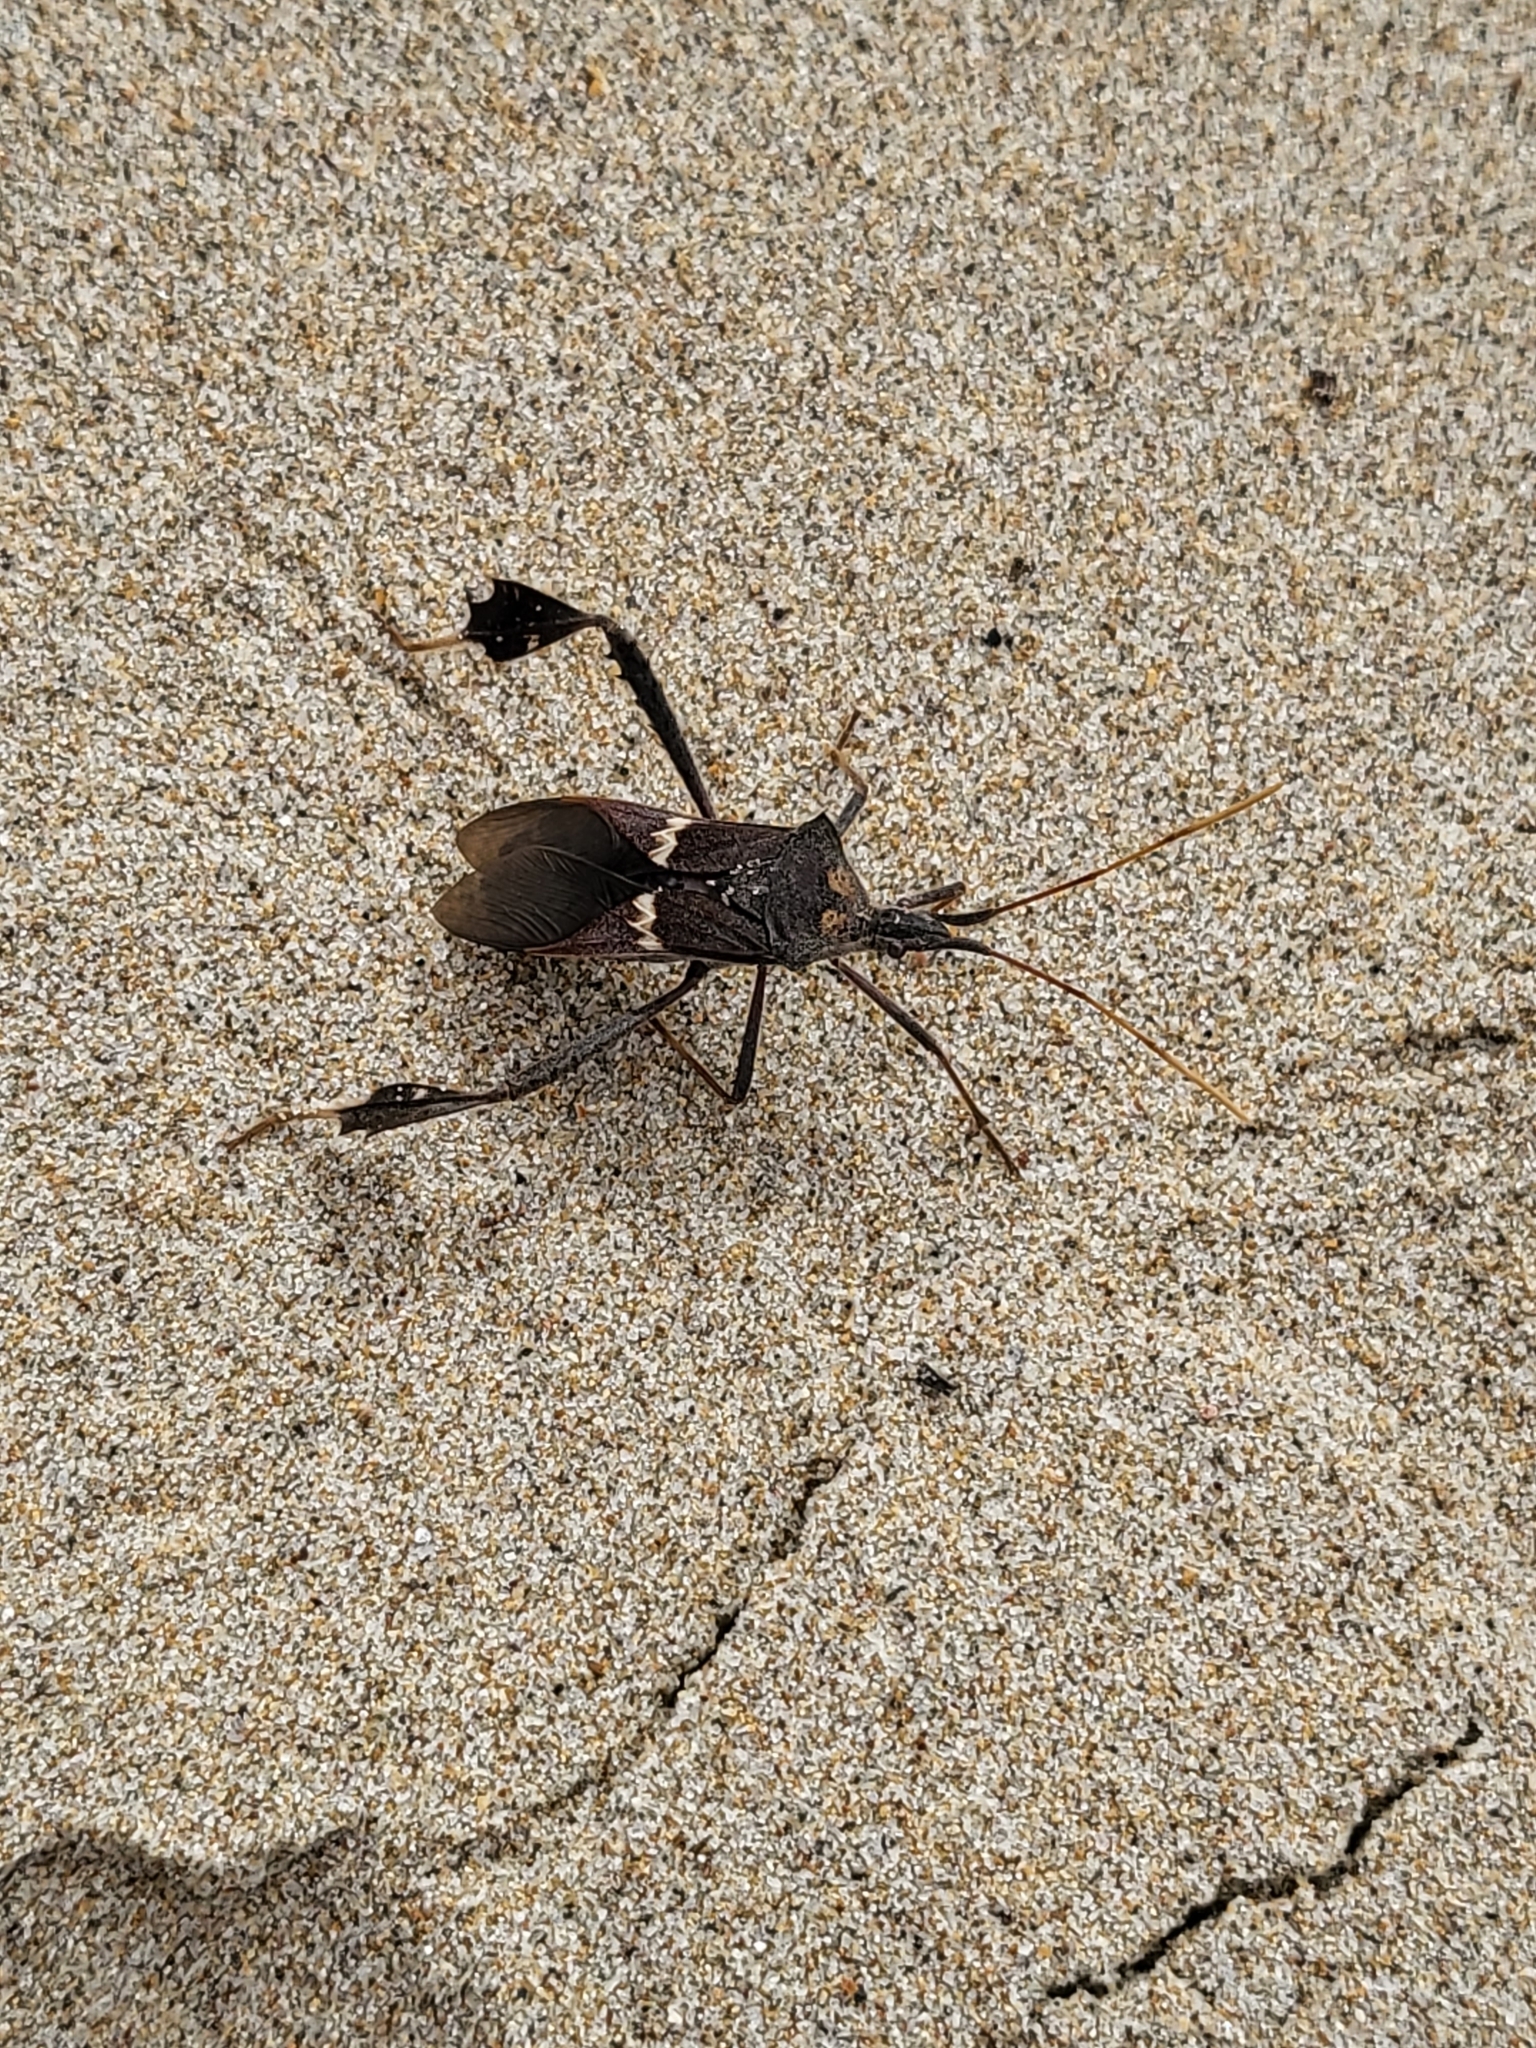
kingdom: Animalia
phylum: Arthropoda
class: Insecta
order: Hemiptera
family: Coreidae
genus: Leptoglossus
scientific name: Leptoglossus zonatus
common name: Large-legged bug
